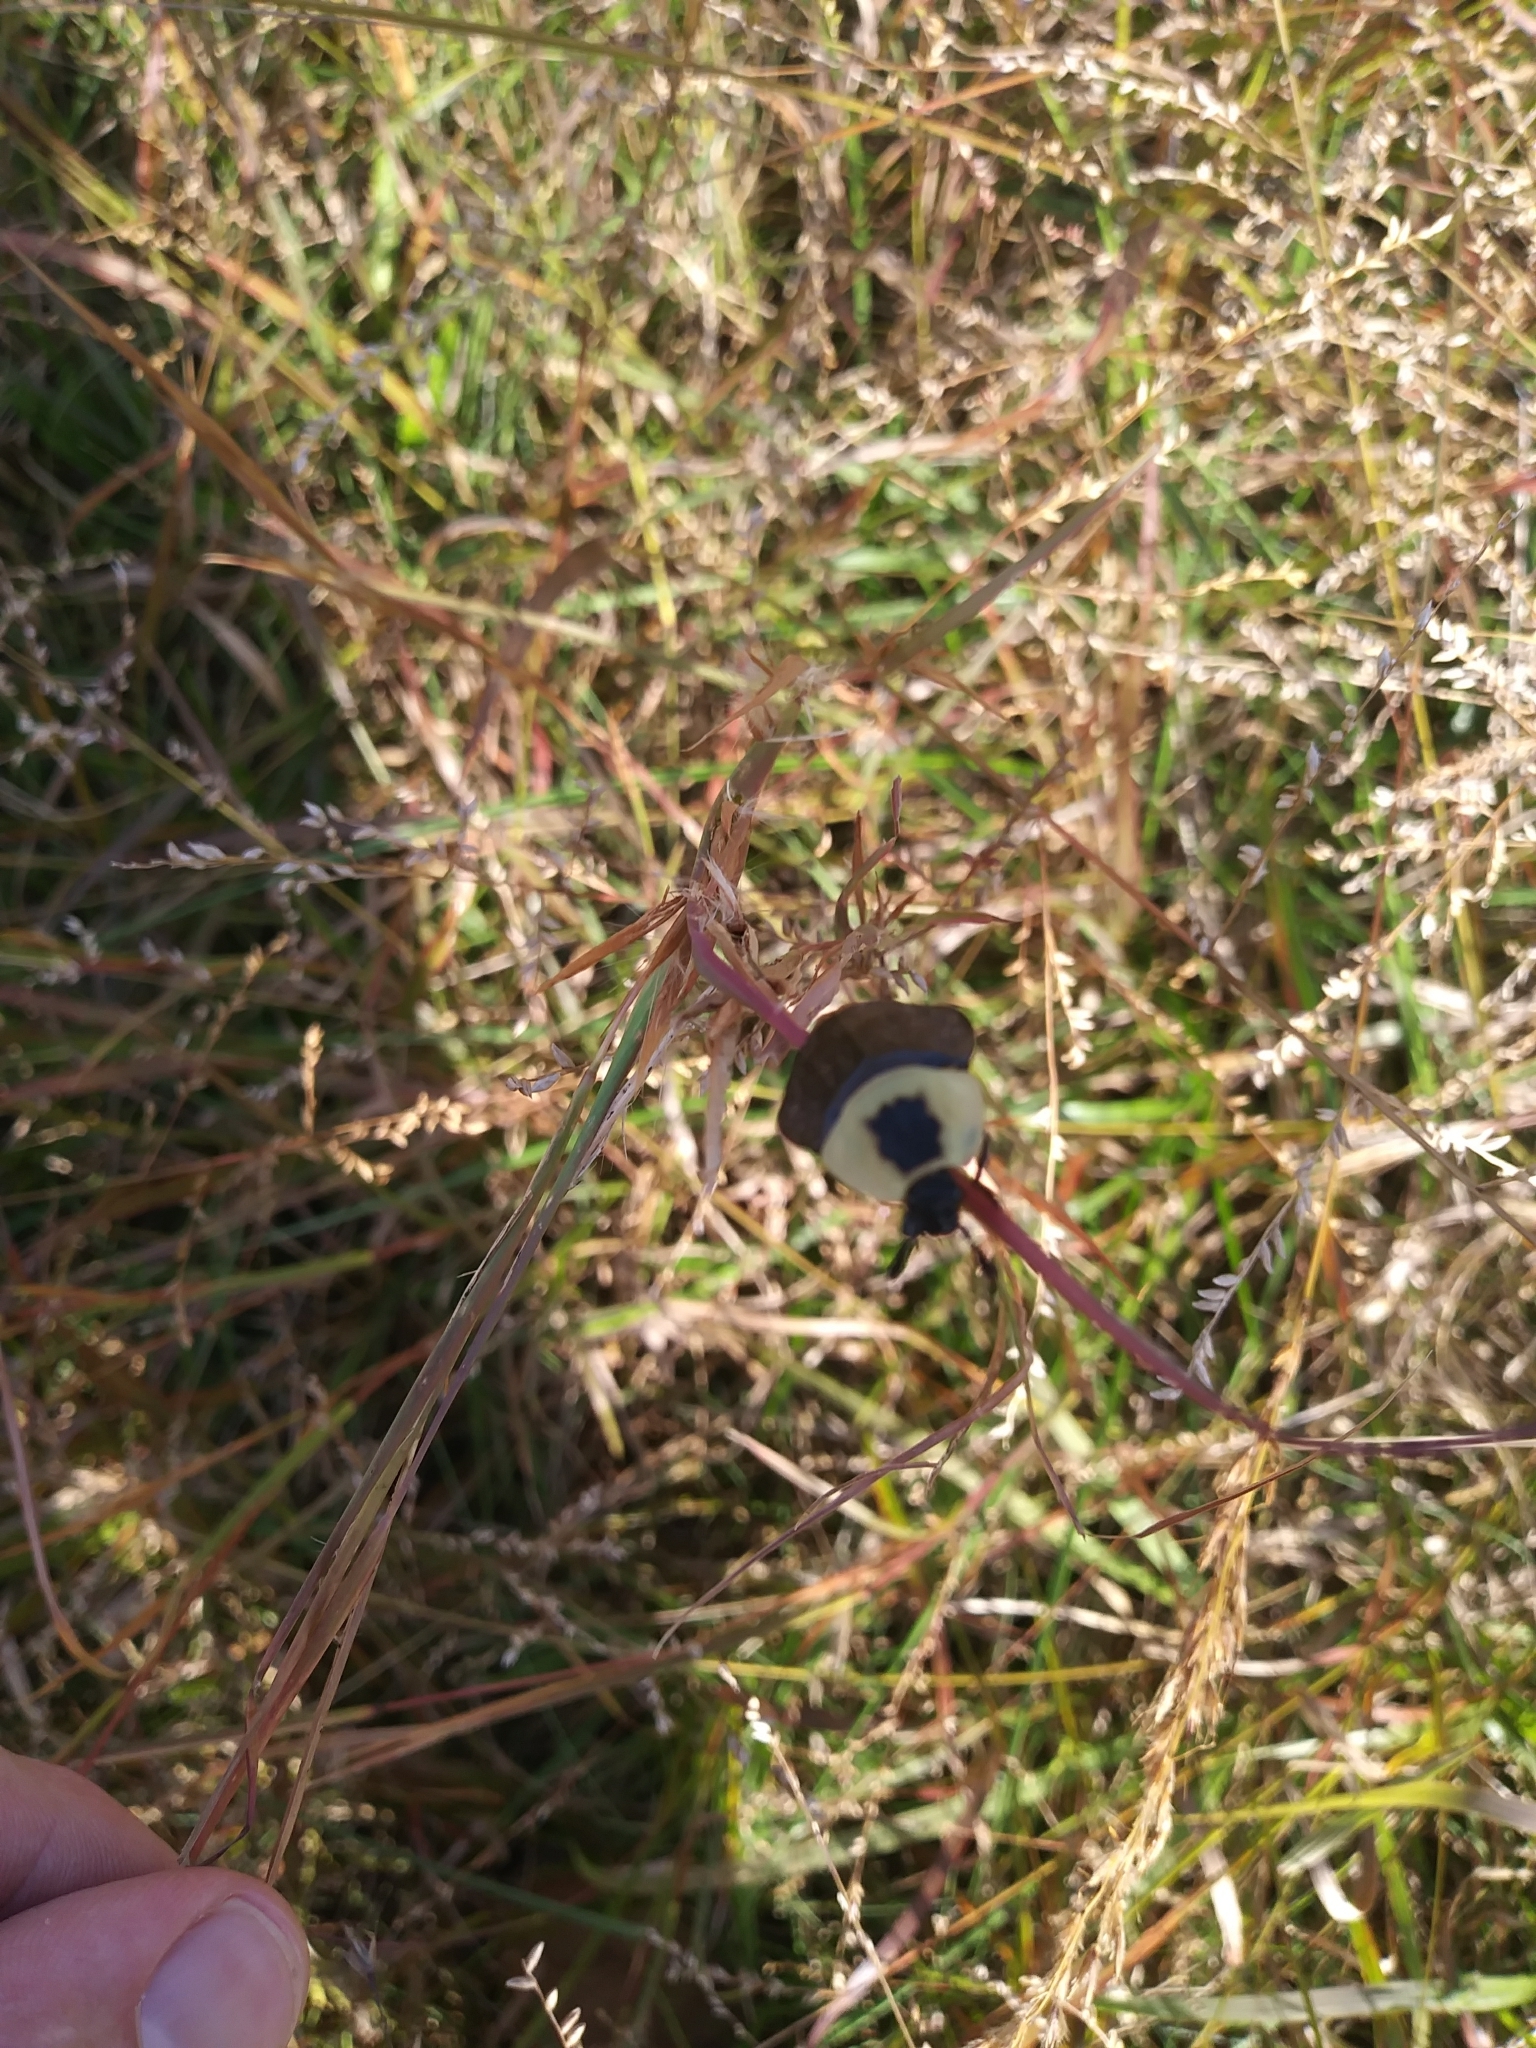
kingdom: Animalia
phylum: Arthropoda
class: Insecta
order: Coleoptera
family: Staphylinidae
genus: Necrophila
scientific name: Necrophila americana
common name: American carrion beetle
